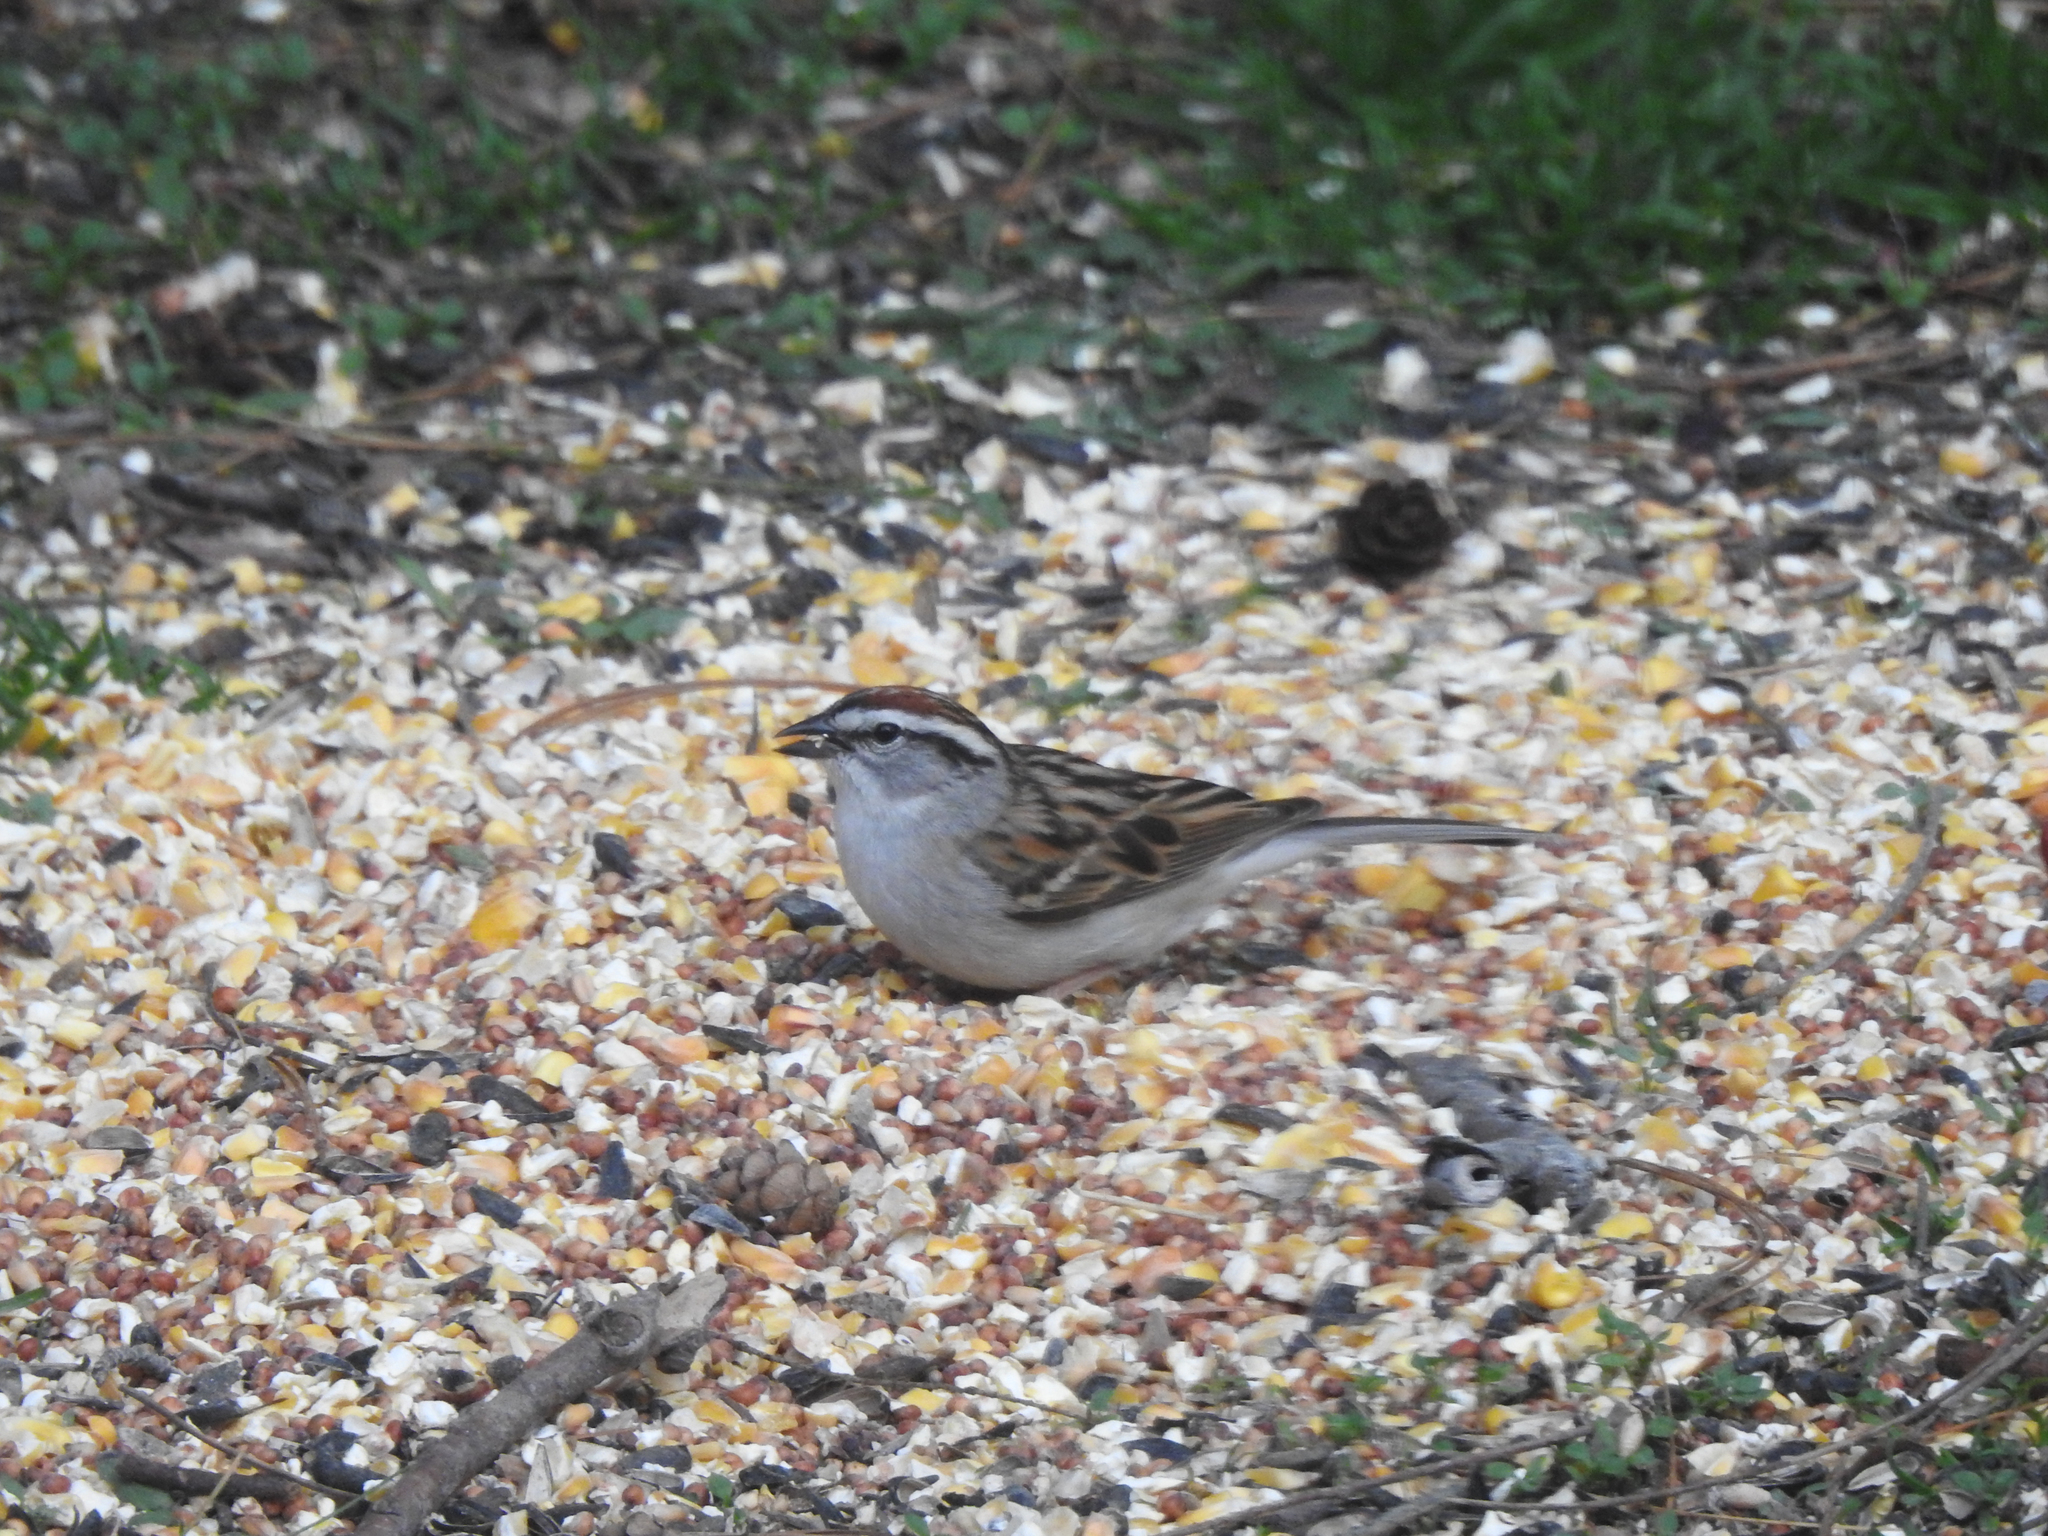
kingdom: Animalia
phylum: Chordata
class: Aves
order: Passeriformes
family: Passerellidae
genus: Spizella
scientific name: Spizella passerina
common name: Chipping sparrow
